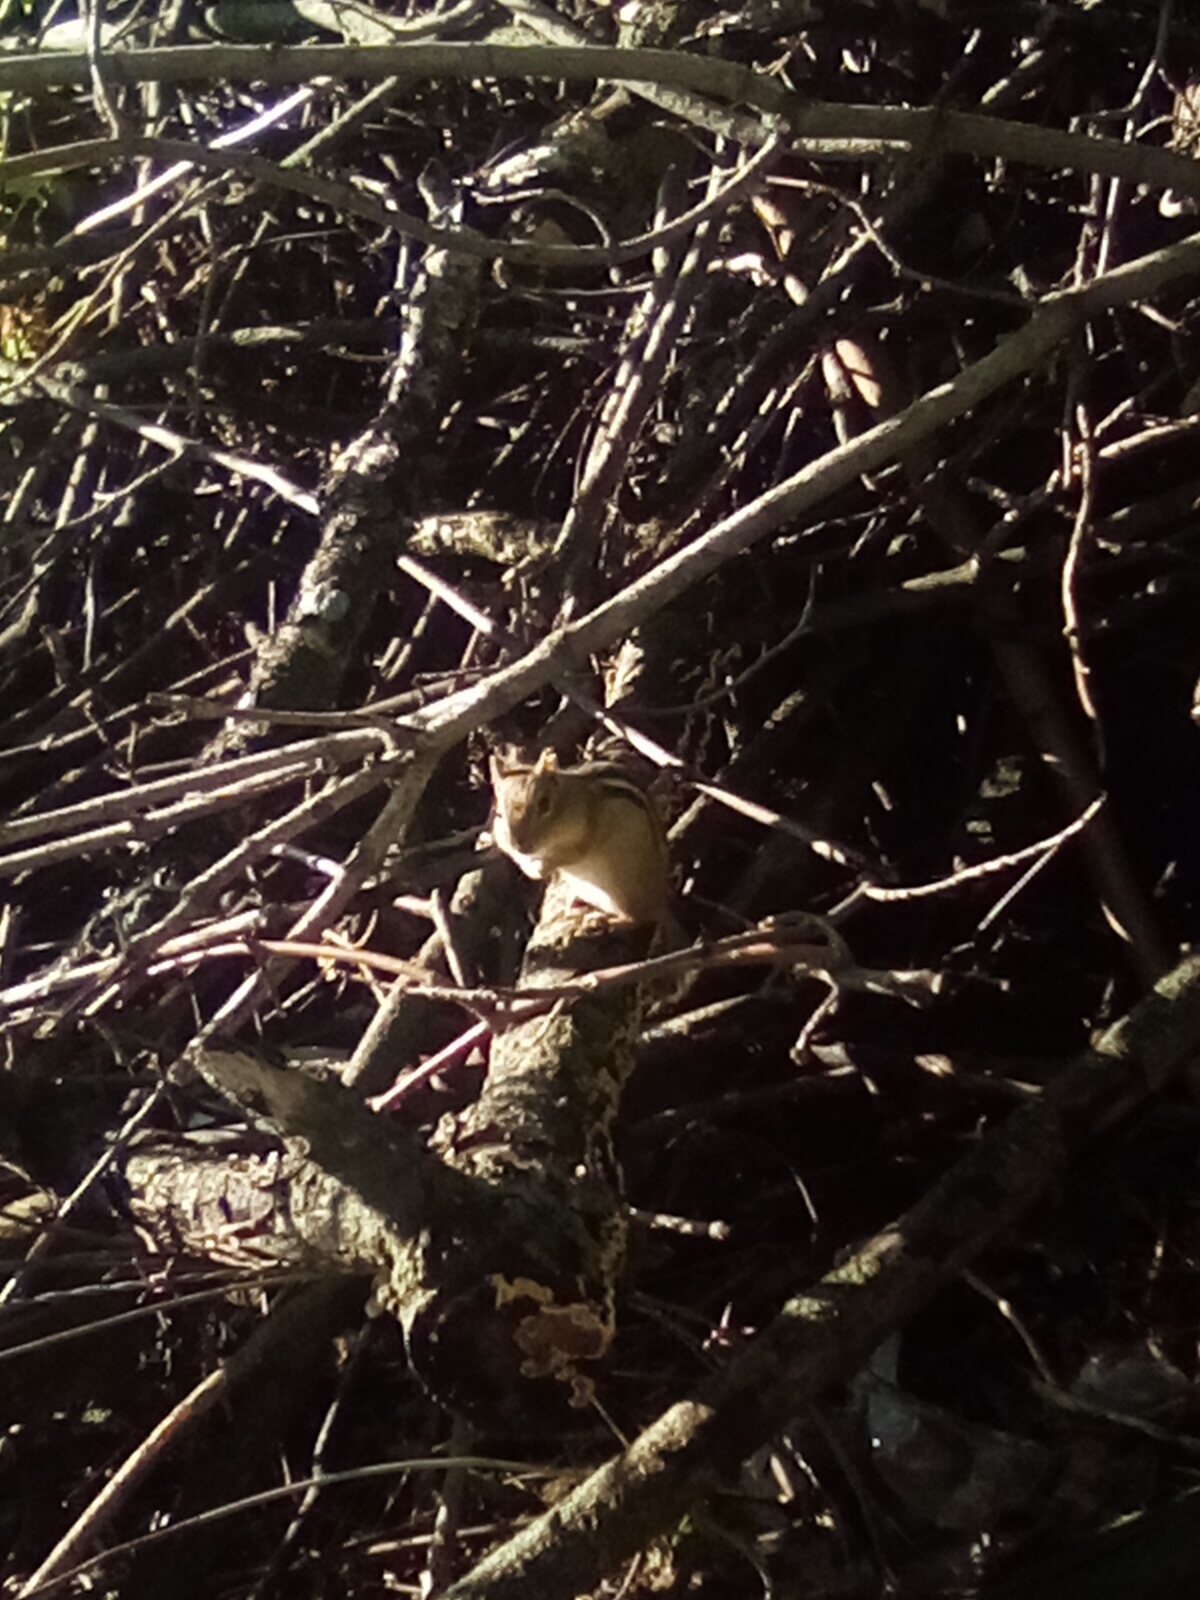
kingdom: Animalia
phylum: Chordata
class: Mammalia
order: Rodentia
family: Sciuridae
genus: Tamias
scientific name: Tamias striatus
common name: Eastern chipmunk
